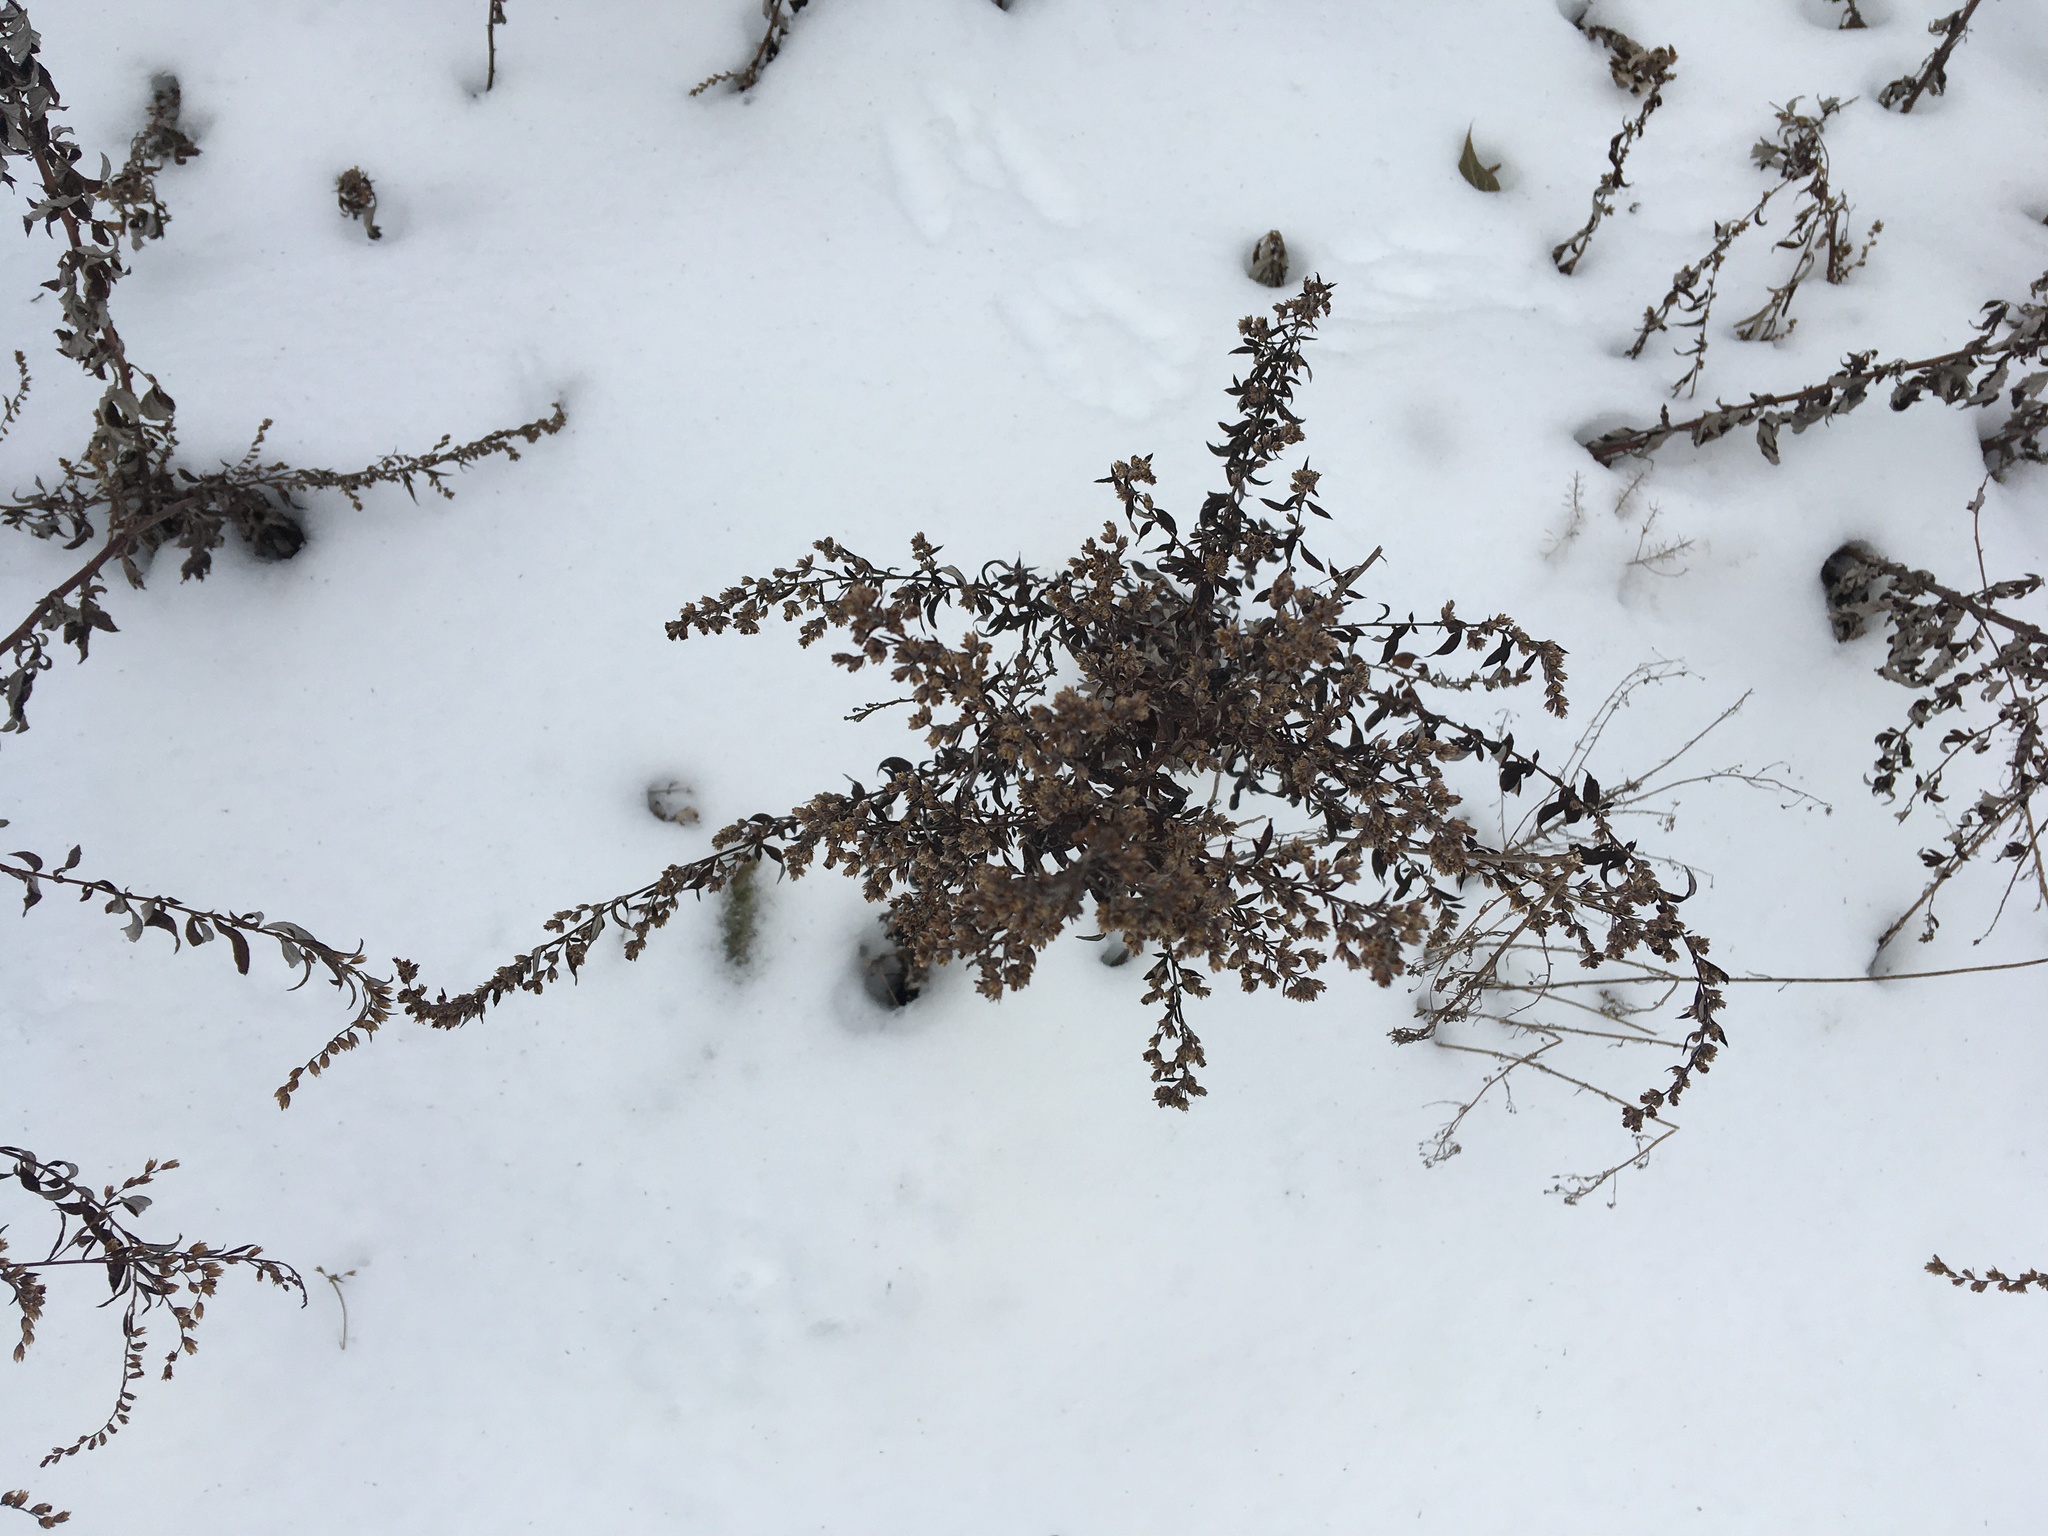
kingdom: Plantae
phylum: Tracheophyta
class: Magnoliopsida
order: Asterales
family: Asteraceae
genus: Artemisia
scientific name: Artemisia vulgaris
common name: Mugwort
